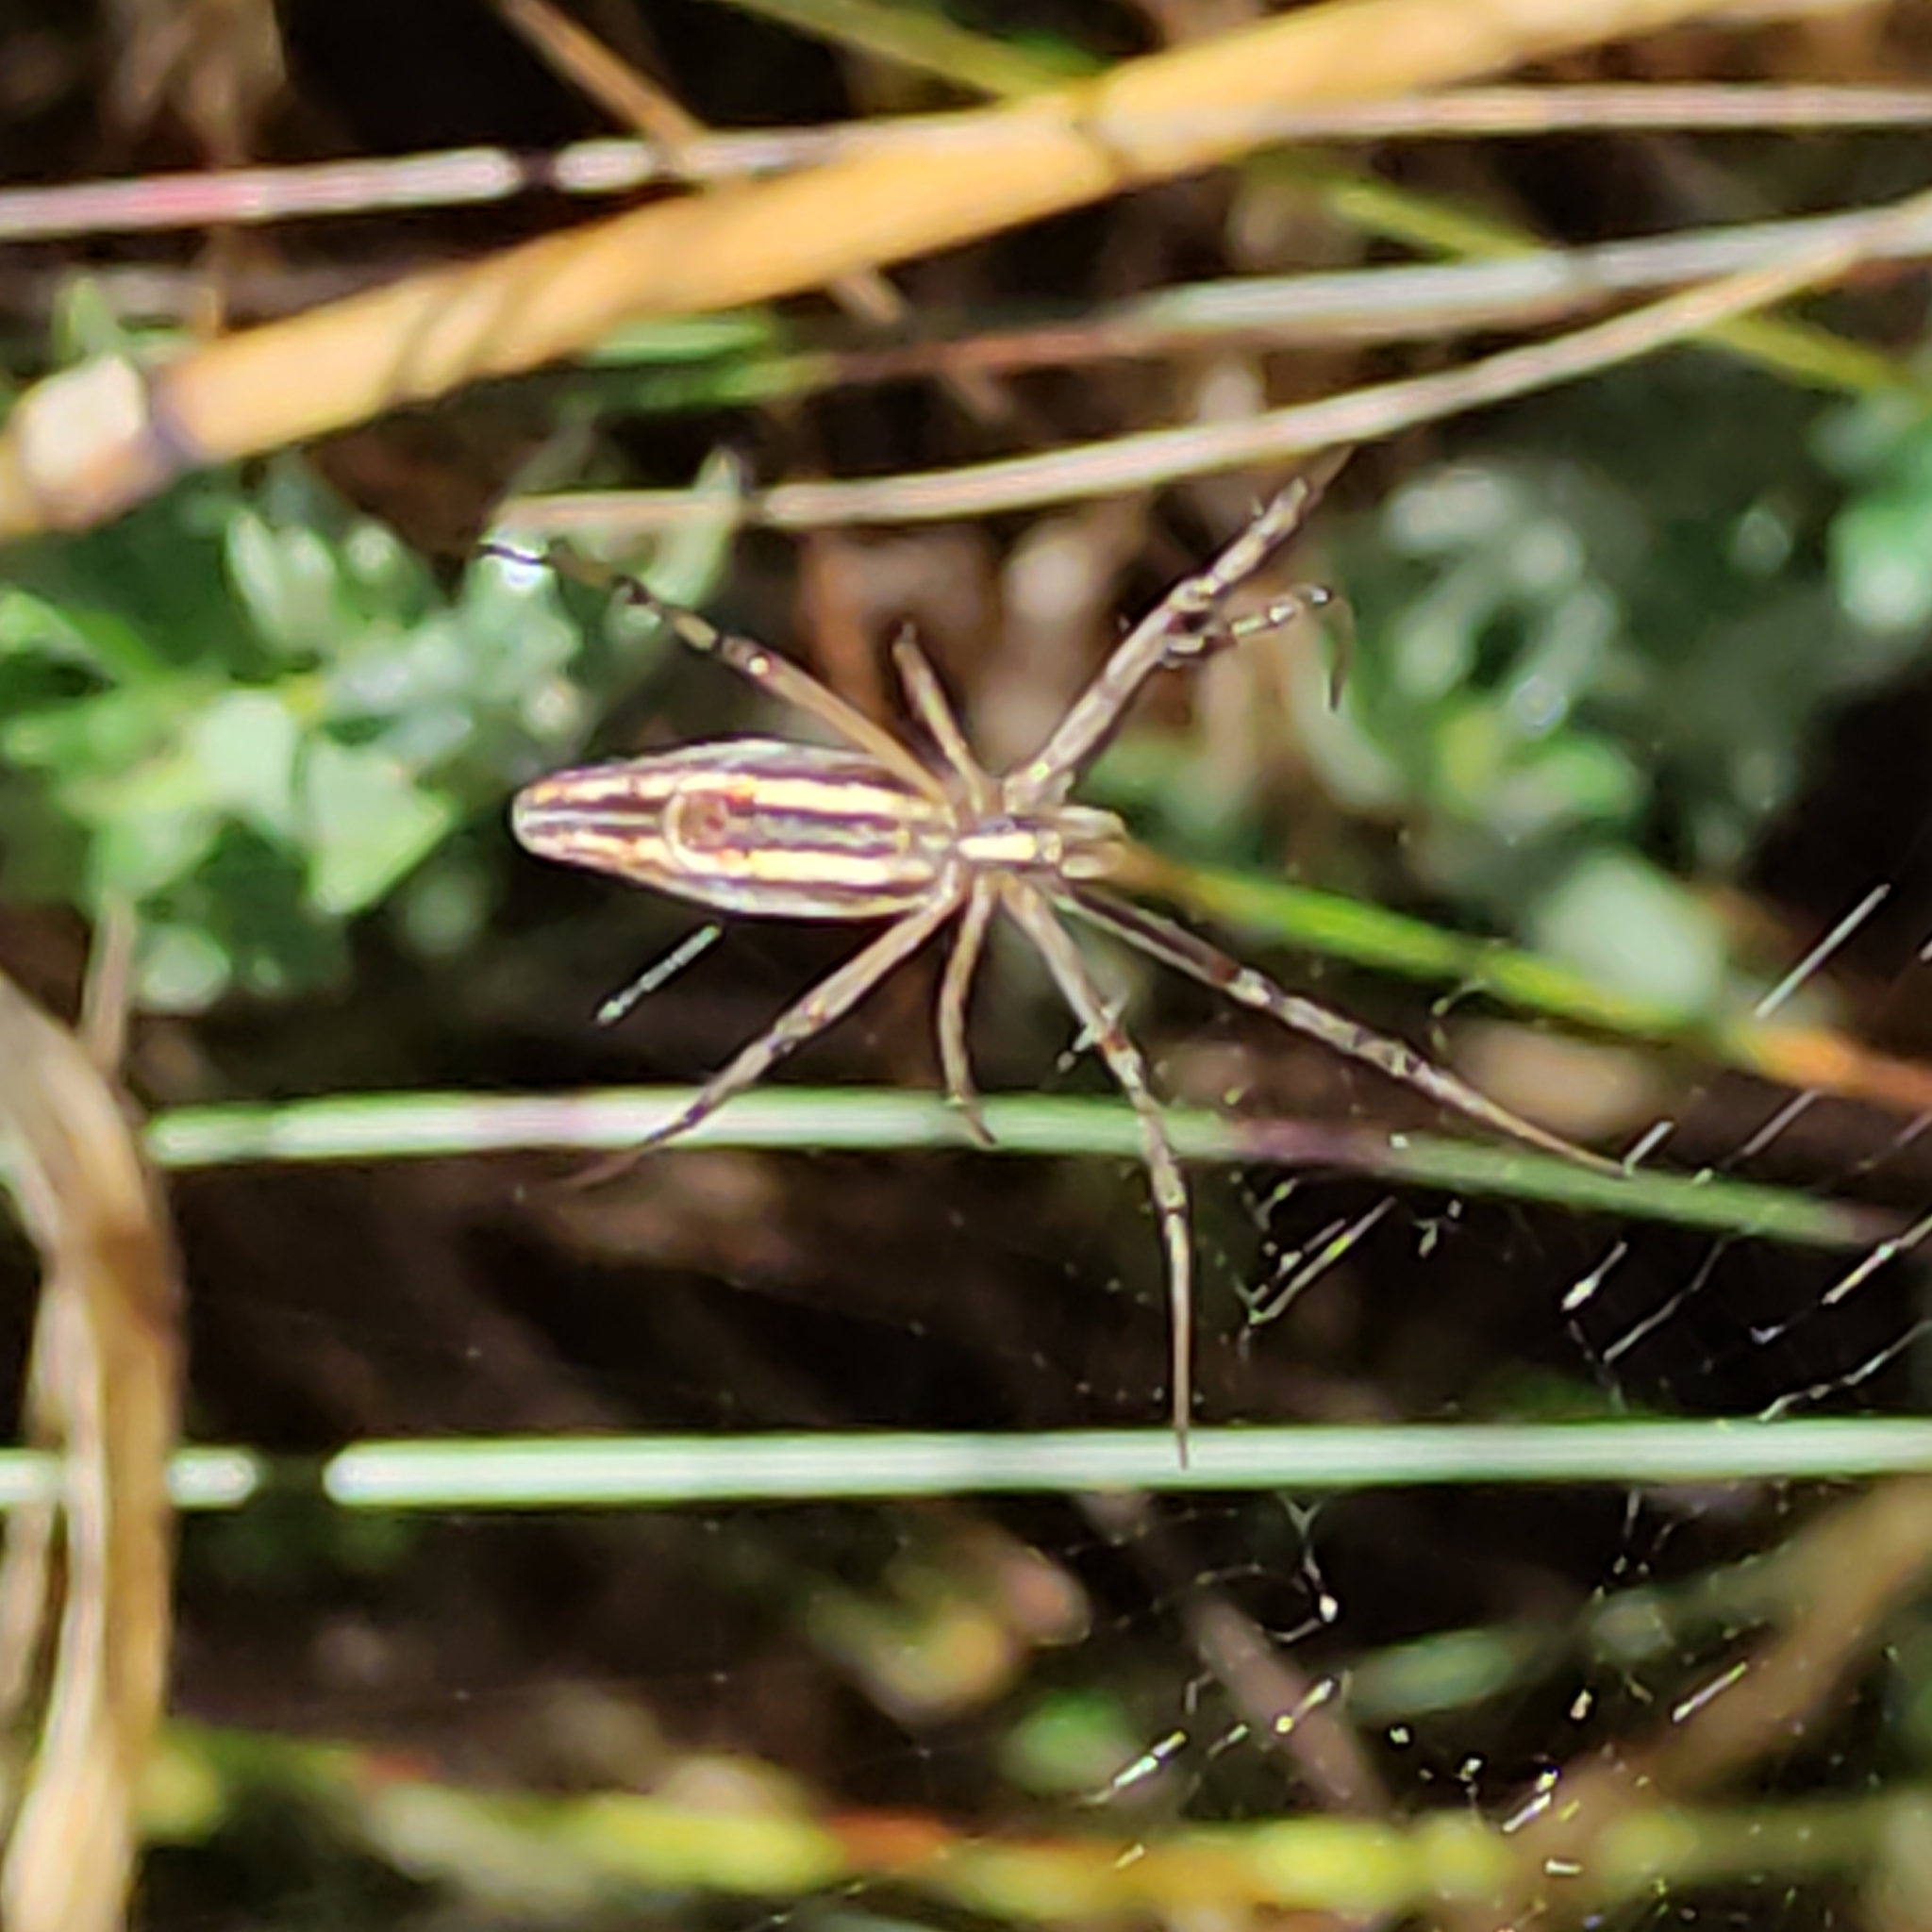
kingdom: Animalia
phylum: Arthropoda
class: Arachnida
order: Araneae
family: Araneidae
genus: Argiope
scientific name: Argiope protensa
